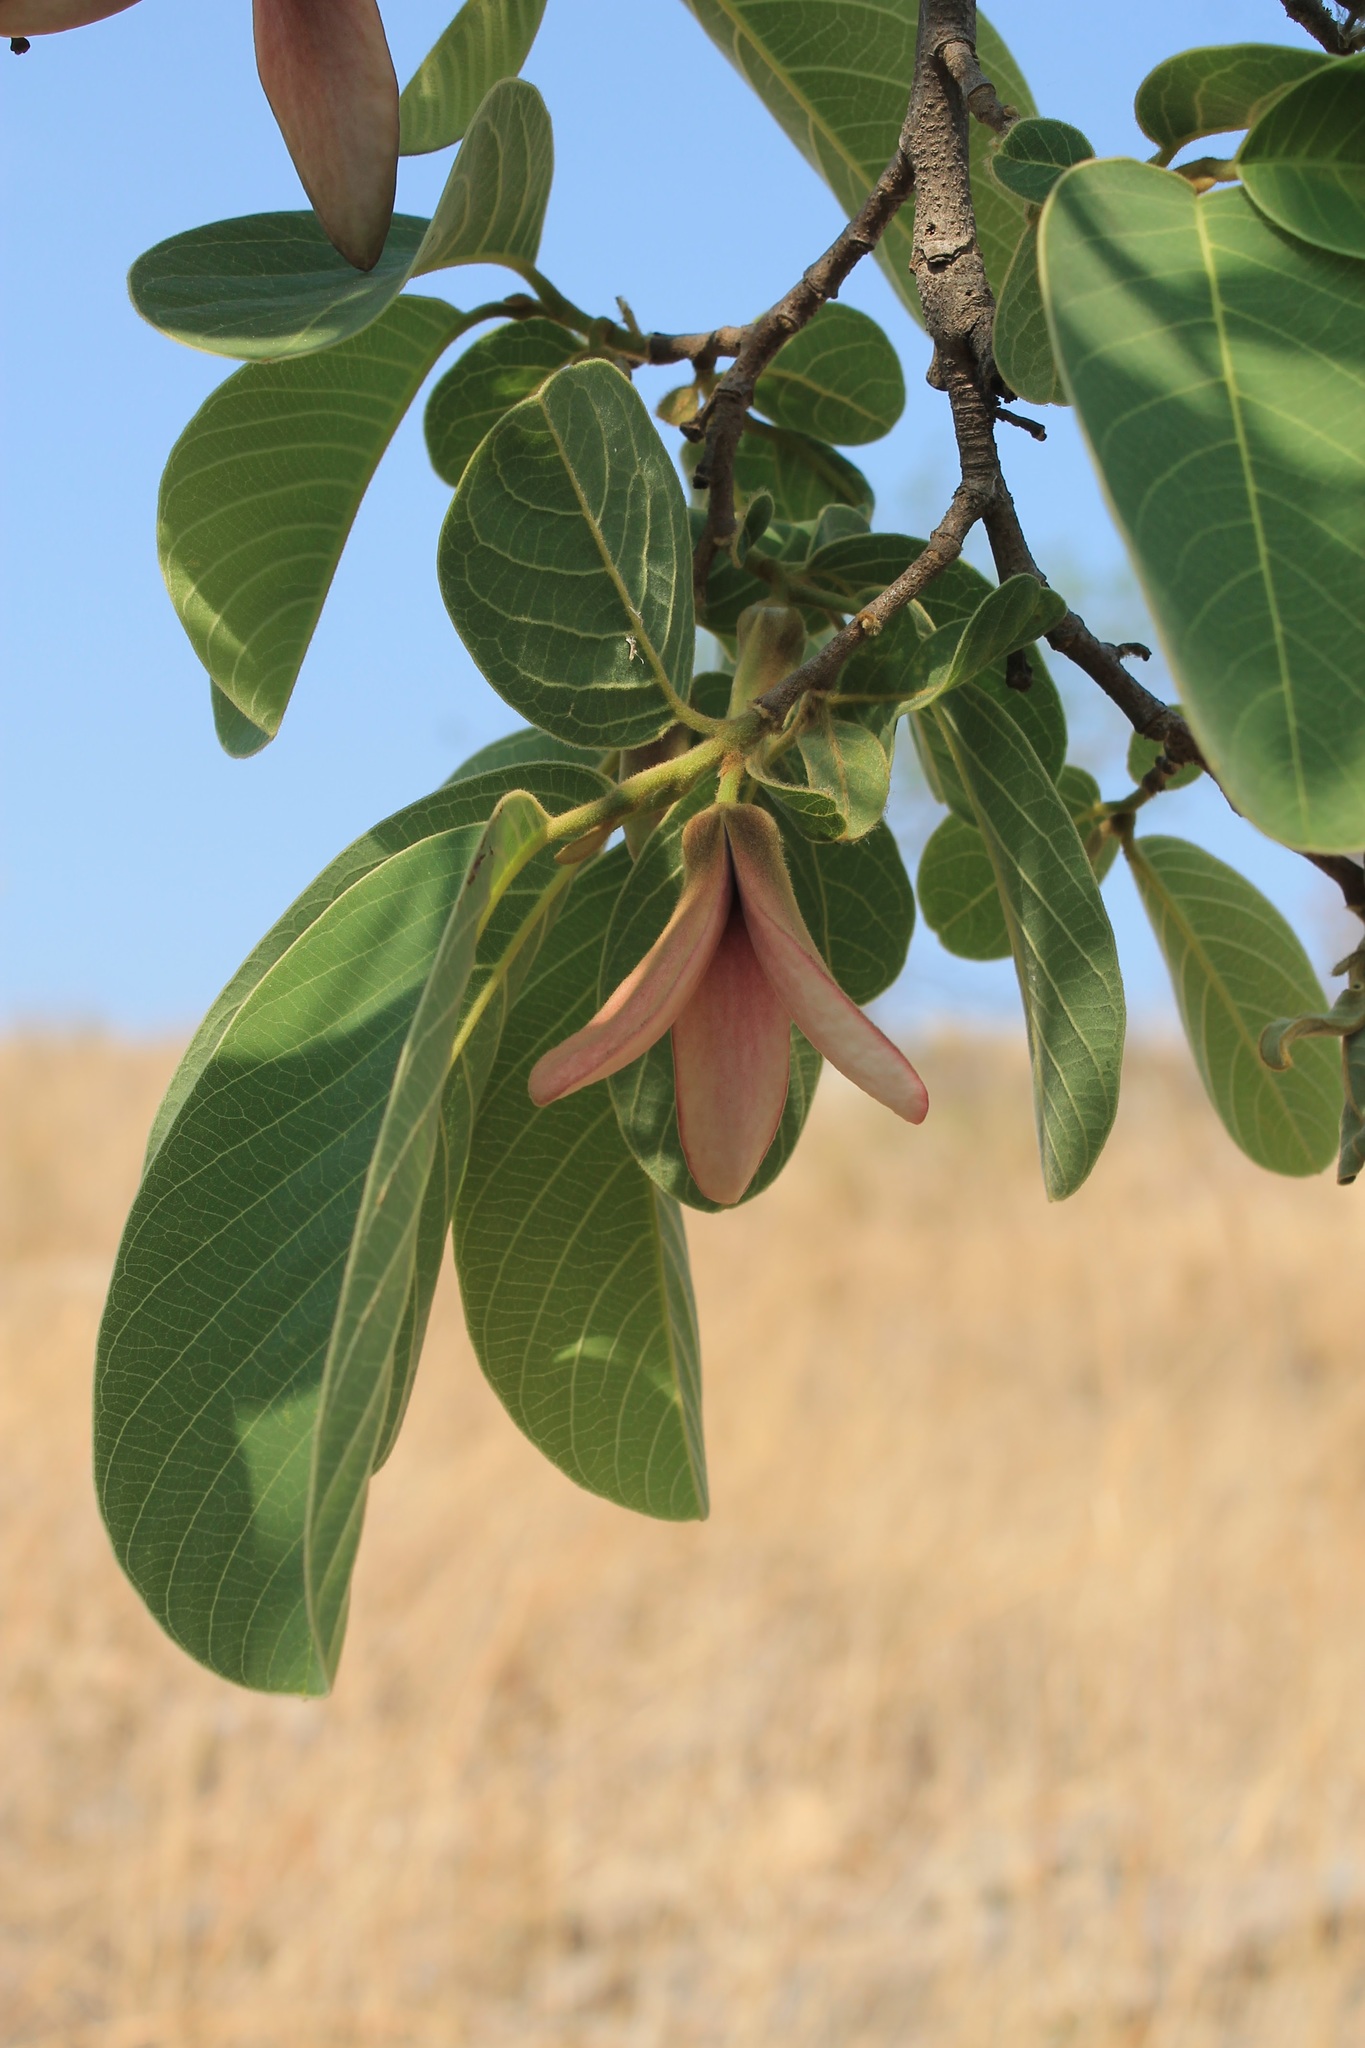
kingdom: Plantae
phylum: Tracheophyta
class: Magnoliopsida
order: Magnoliales
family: Annonaceae
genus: Annona
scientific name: Annona longiflora
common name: Wild cherimoya of jalisco
